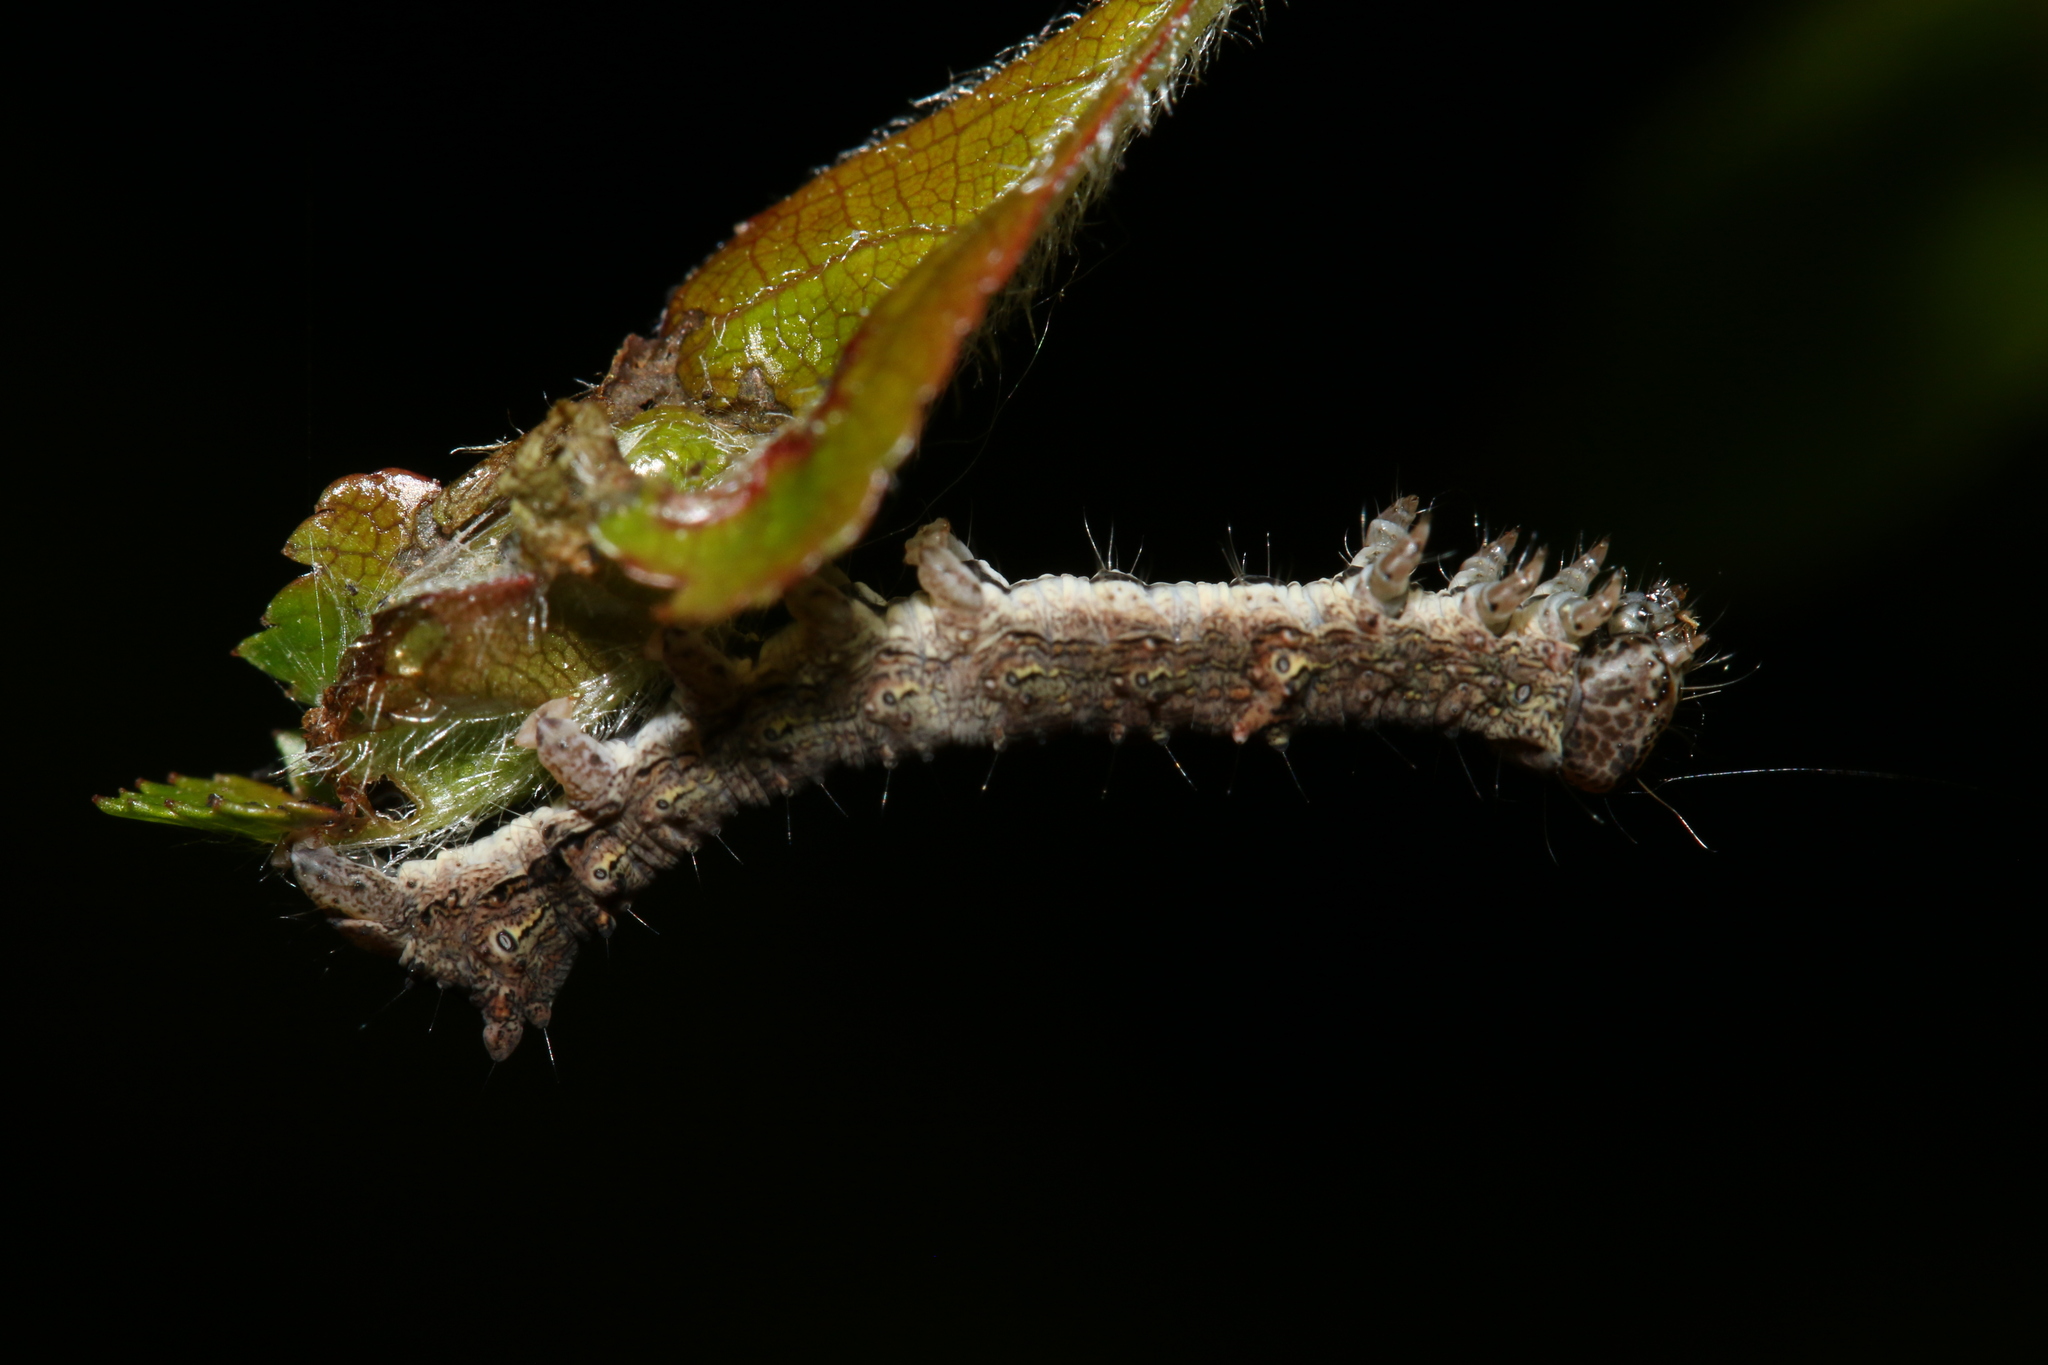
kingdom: Animalia
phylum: Arthropoda
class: Insecta
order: Lepidoptera
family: Noctuidae
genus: Allophyes
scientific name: Allophyes oxyacanthae
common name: Green-brindled crescent
